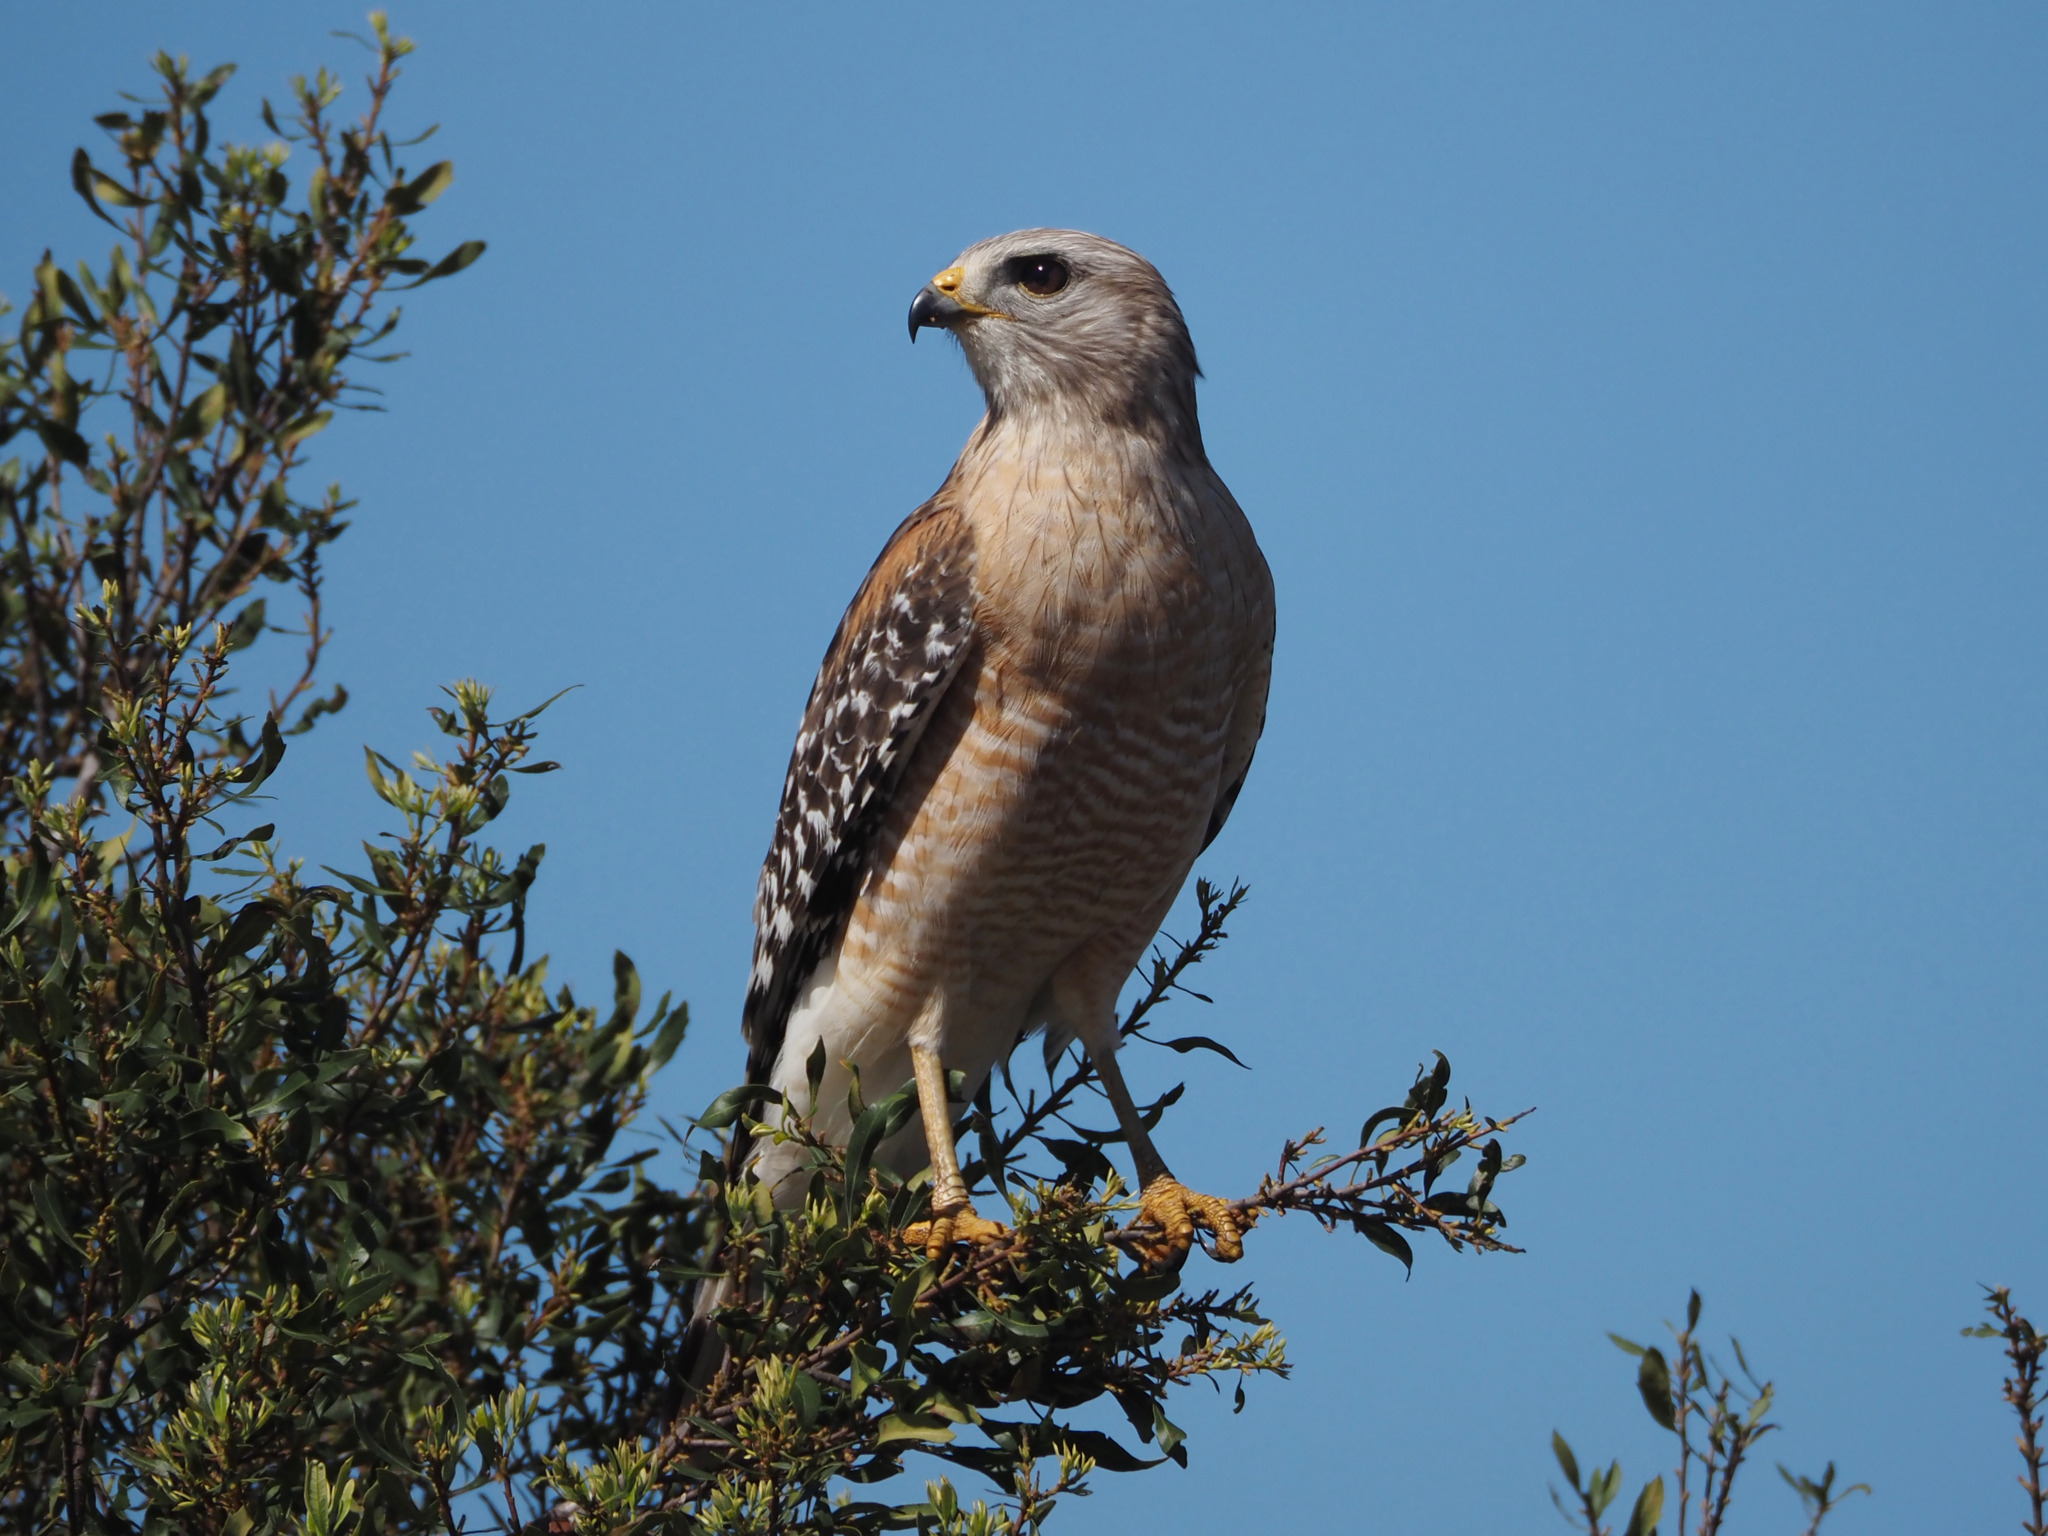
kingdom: Animalia
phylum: Chordata
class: Aves
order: Accipitriformes
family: Accipitridae
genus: Buteo
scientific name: Buteo lineatus
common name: Red-shouldered hawk
